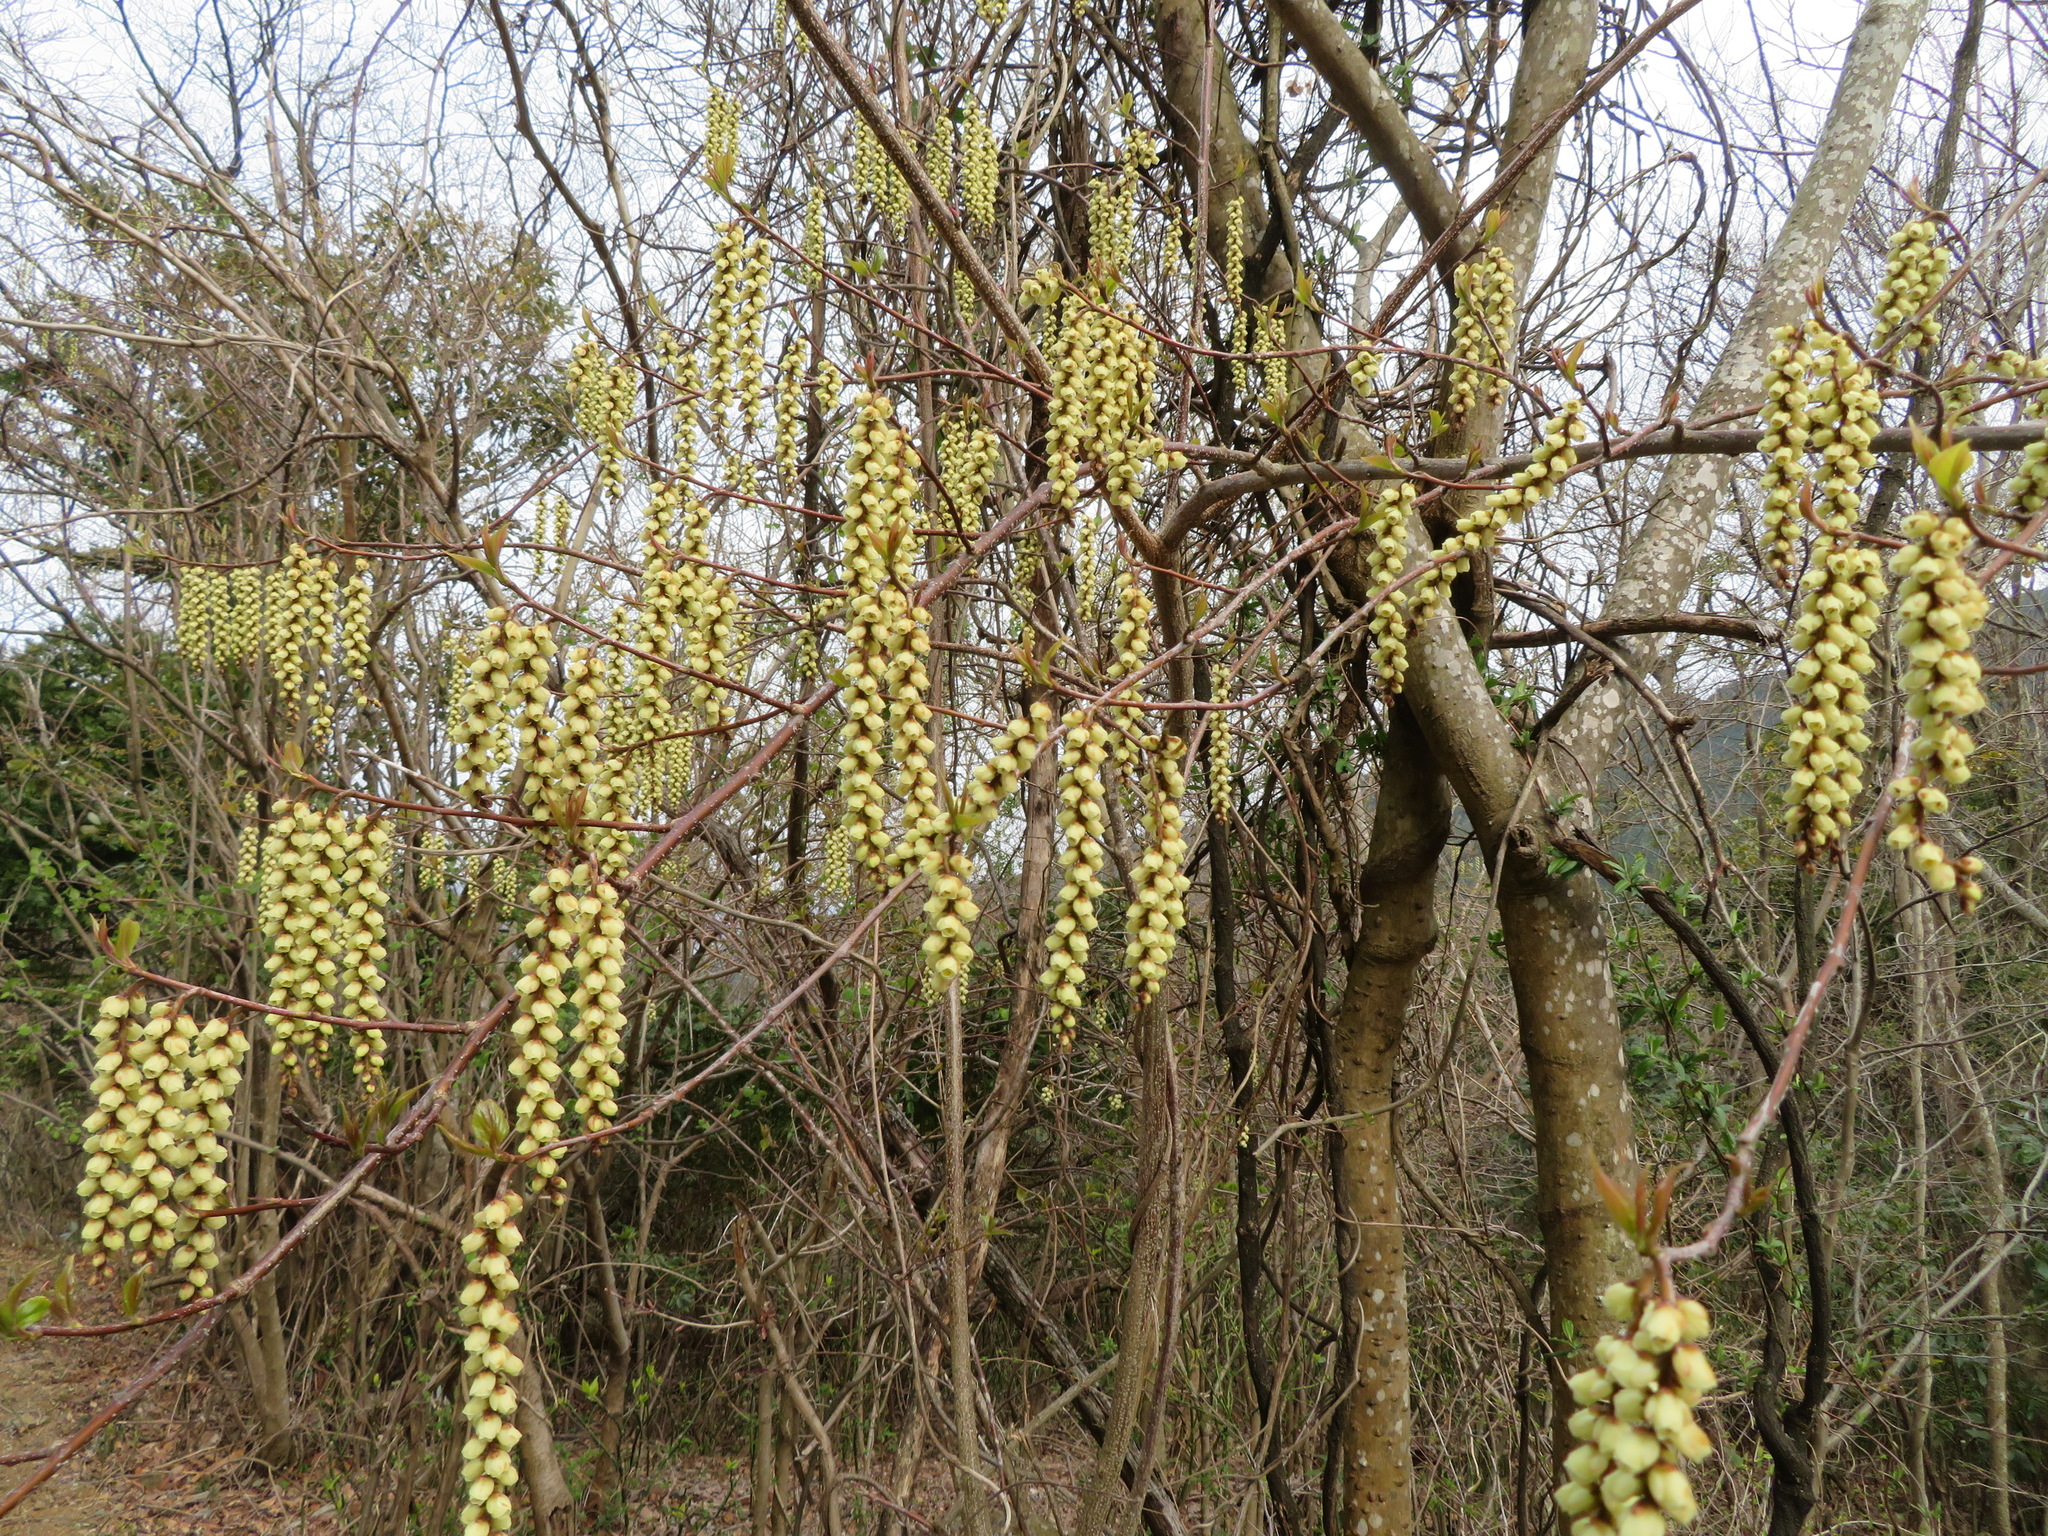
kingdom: Plantae
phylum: Tracheophyta
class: Magnoliopsida
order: Crossosomatales
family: Stachyuraceae
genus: Stachyurus
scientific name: Stachyurus praecox
